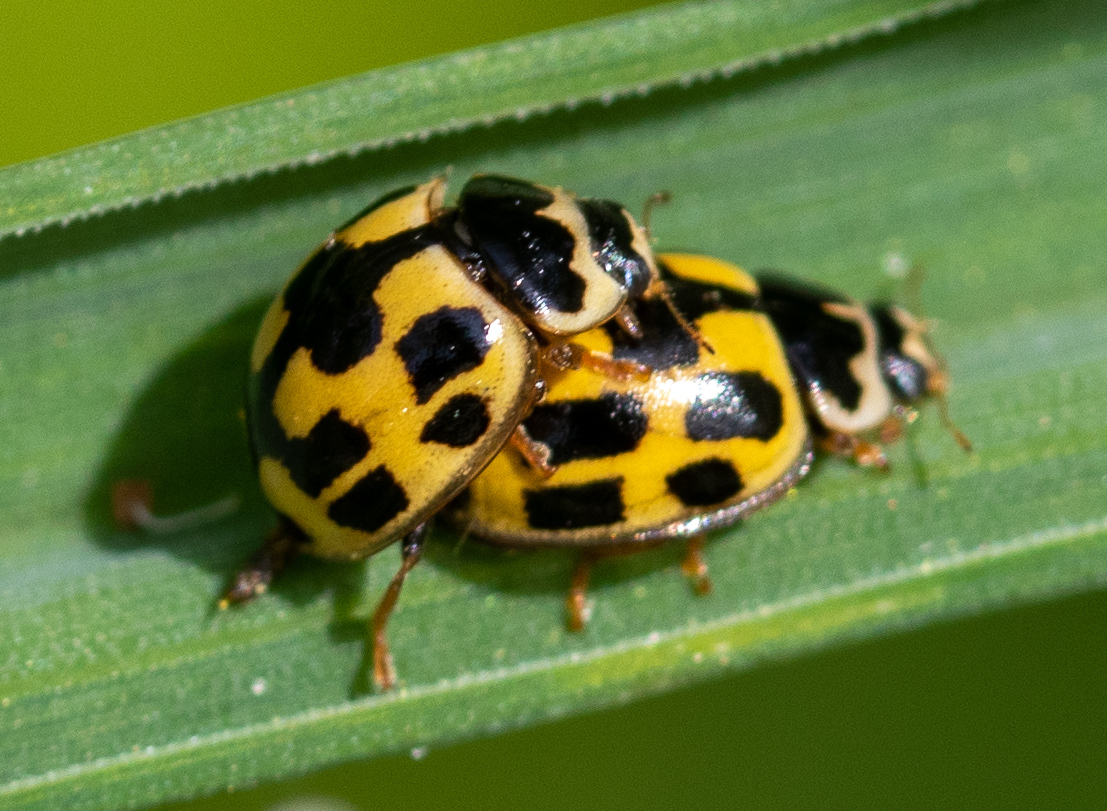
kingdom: Animalia
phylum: Arthropoda
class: Insecta
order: Coleoptera
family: Coccinellidae
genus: Propylaea
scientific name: Propylaea quatuordecimpunctata
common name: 14-spotted ladybird beetle
